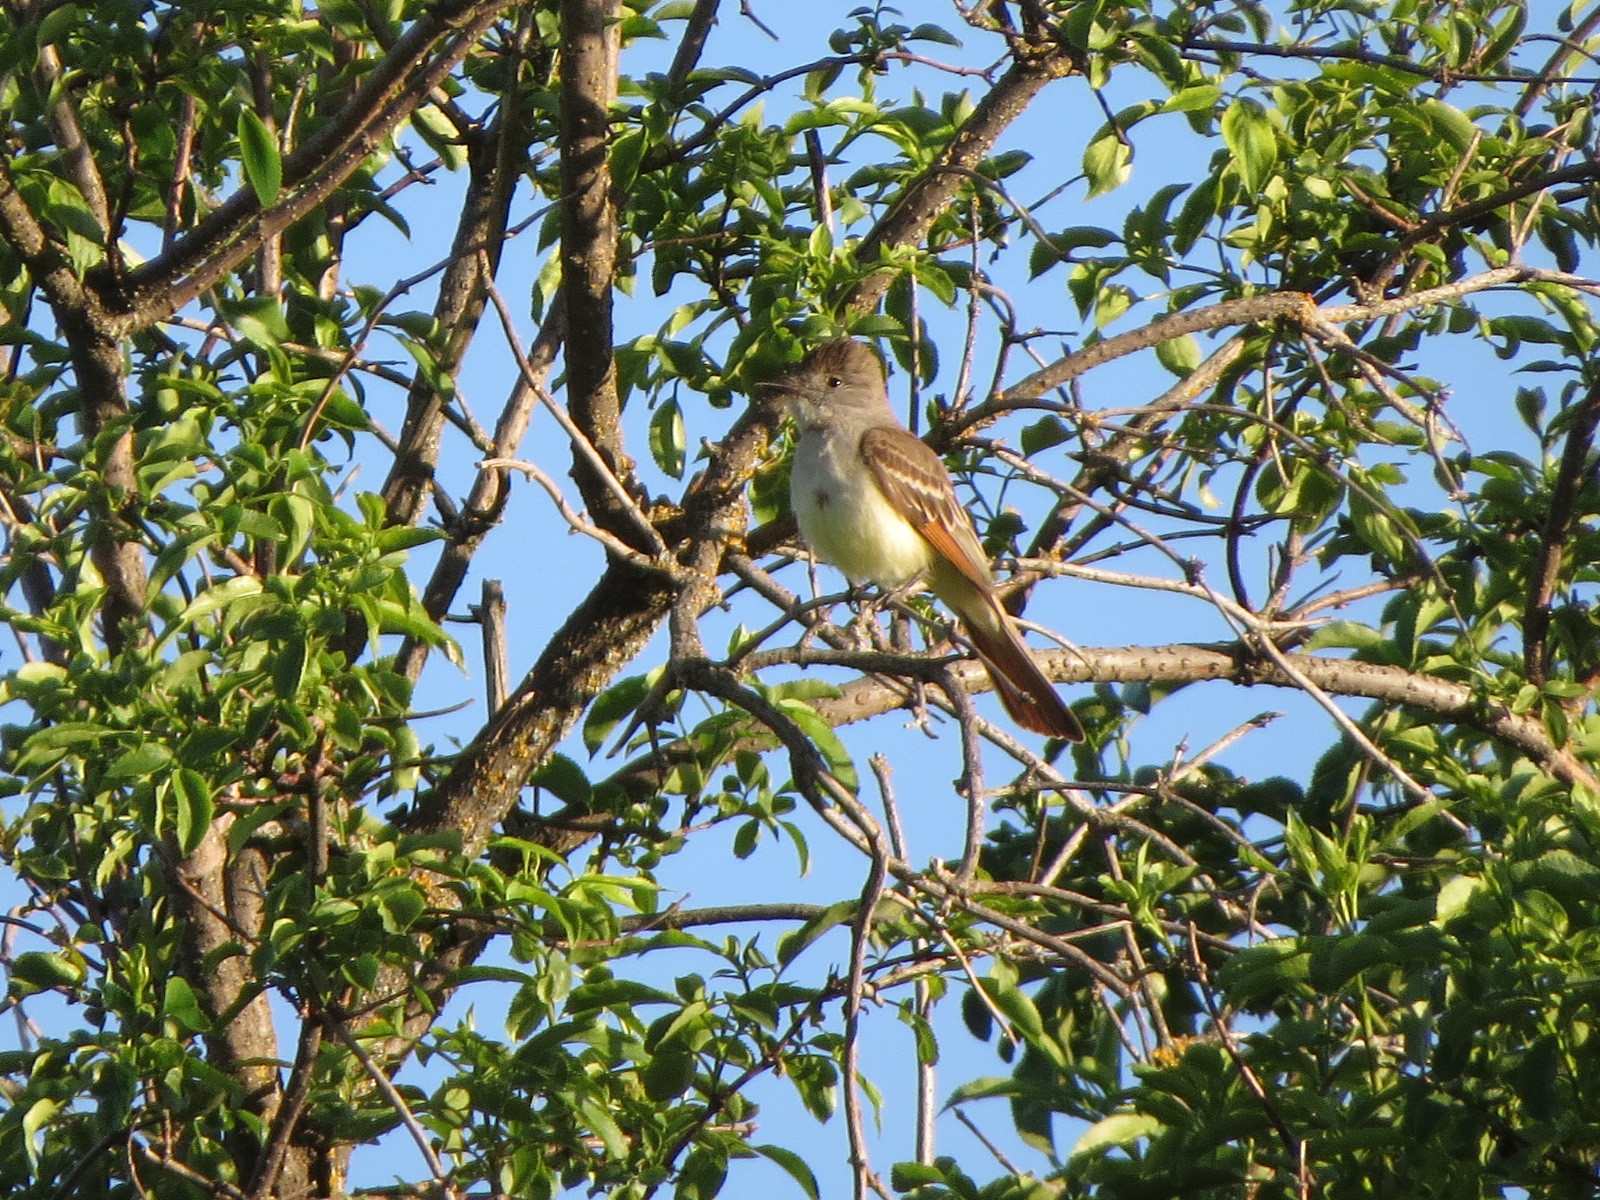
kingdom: Animalia
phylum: Chordata
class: Aves
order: Passeriformes
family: Tyrannidae
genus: Myiarchus
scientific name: Myiarchus cinerascens
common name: Ash-throated flycatcher
